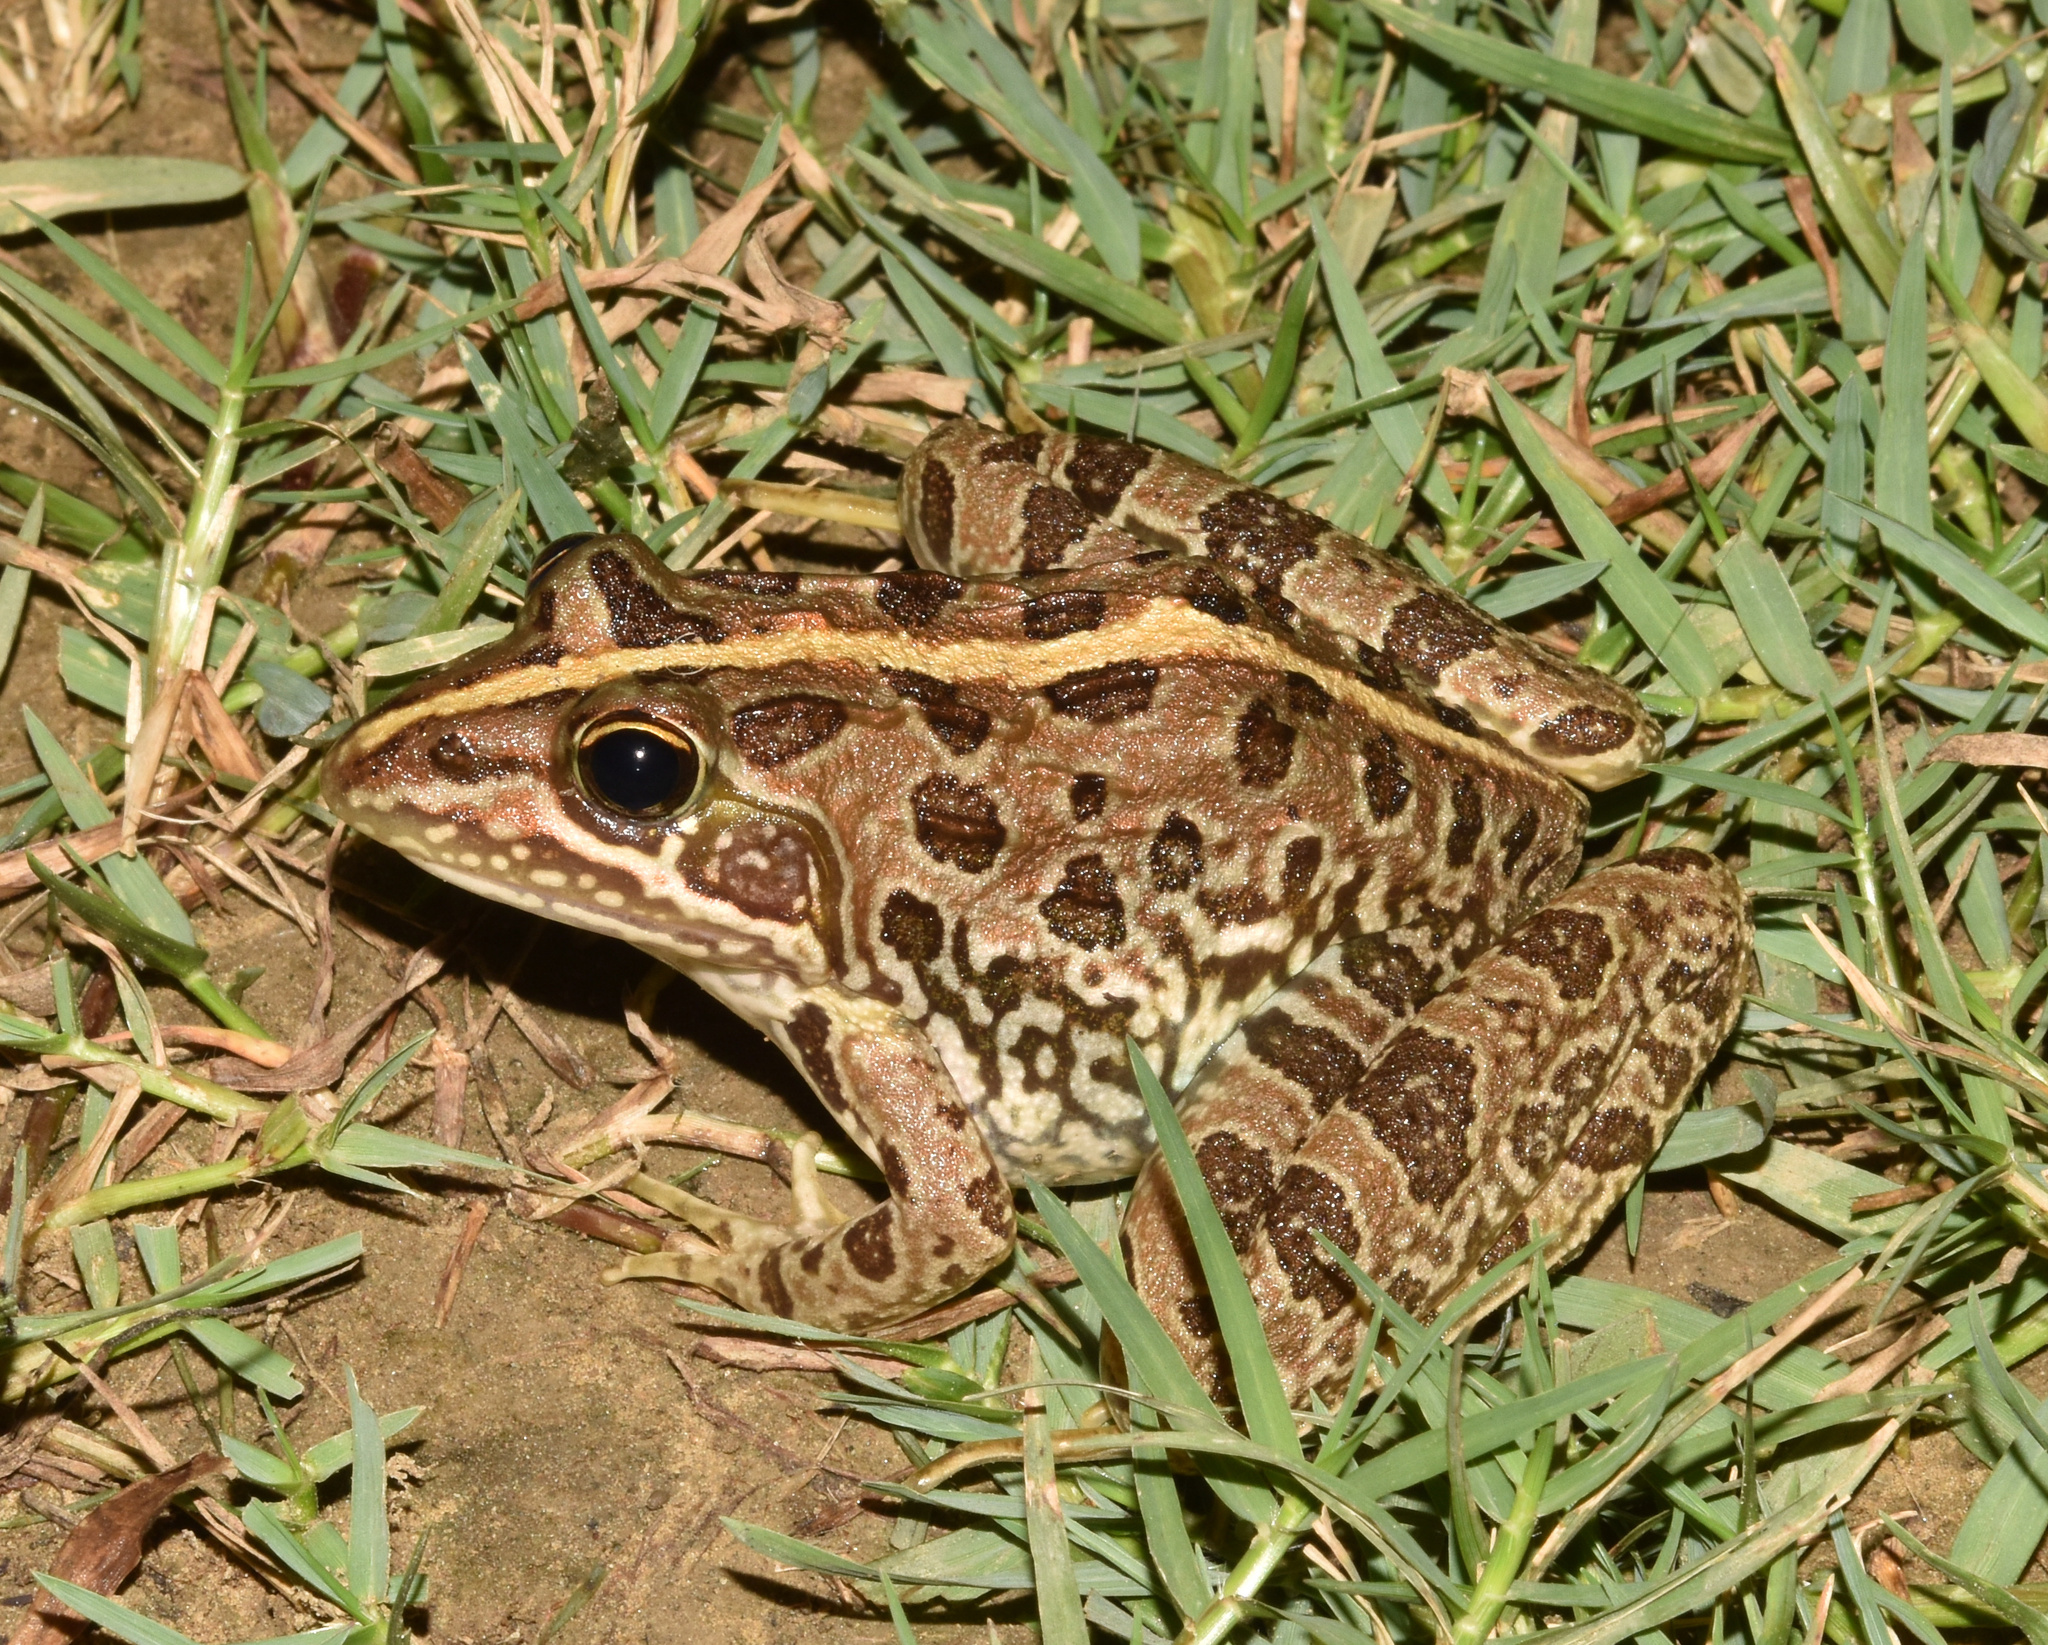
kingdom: Animalia
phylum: Chordata
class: Amphibia
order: Anura
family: Pyxicephalidae
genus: Amietia
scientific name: Amietia delalandii
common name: Delalande's river frog
